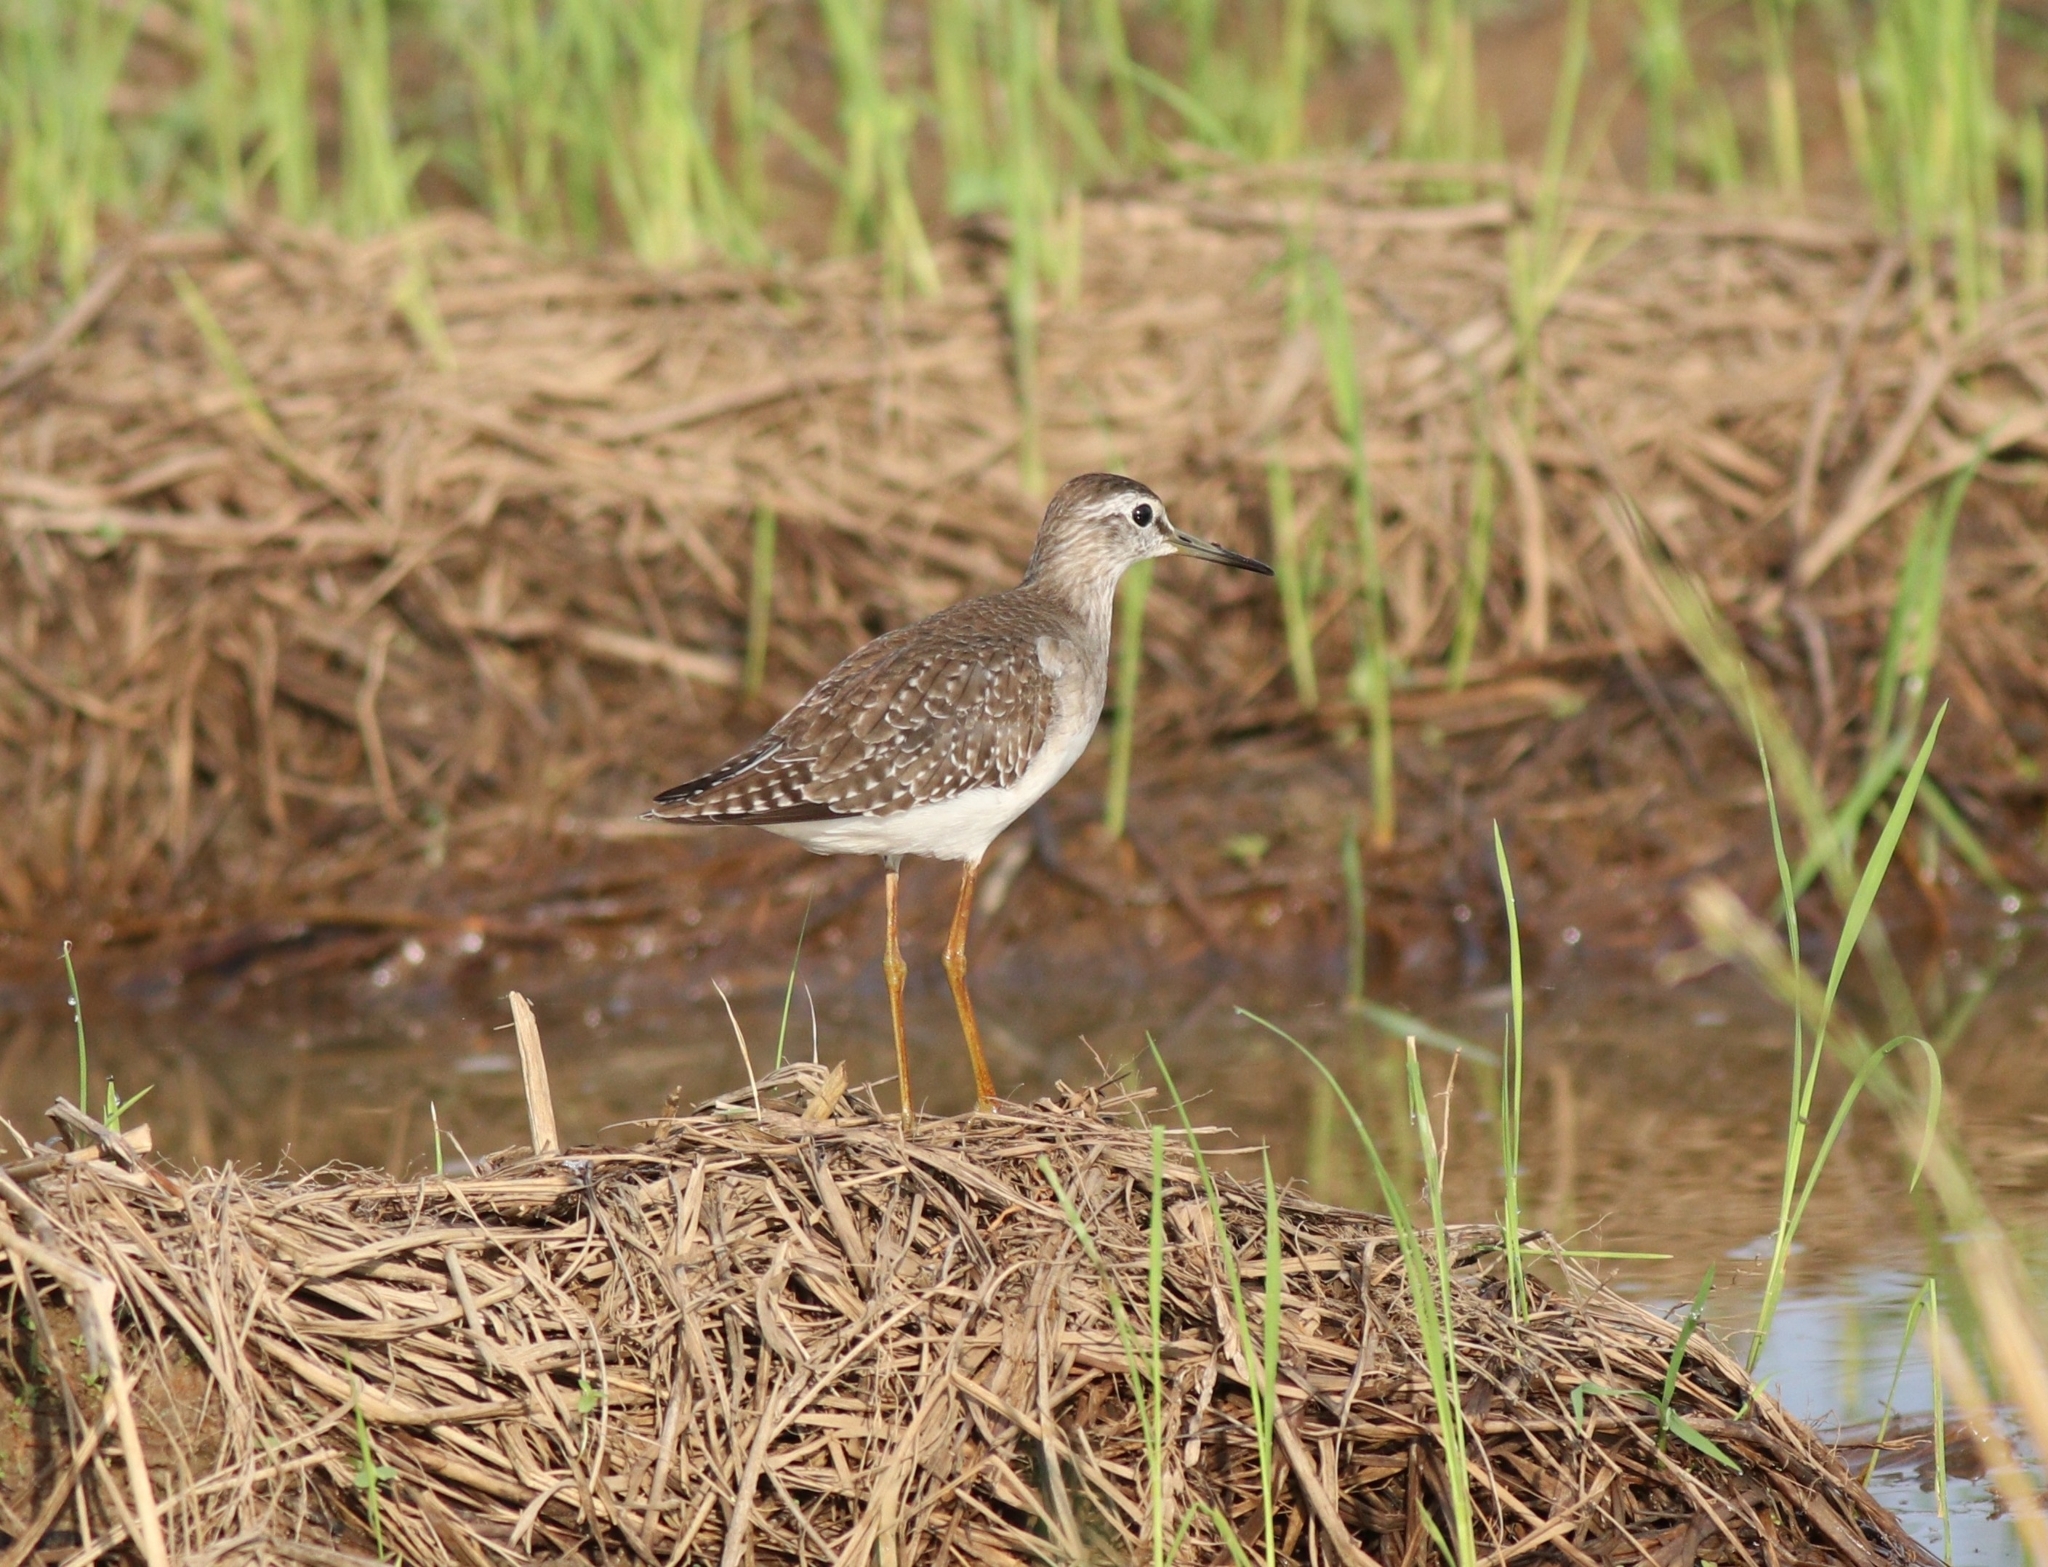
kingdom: Animalia
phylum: Chordata
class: Aves
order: Charadriiformes
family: Scolopacidae
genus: Tringa
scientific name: Tringa glareola
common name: Wood sandpiper
